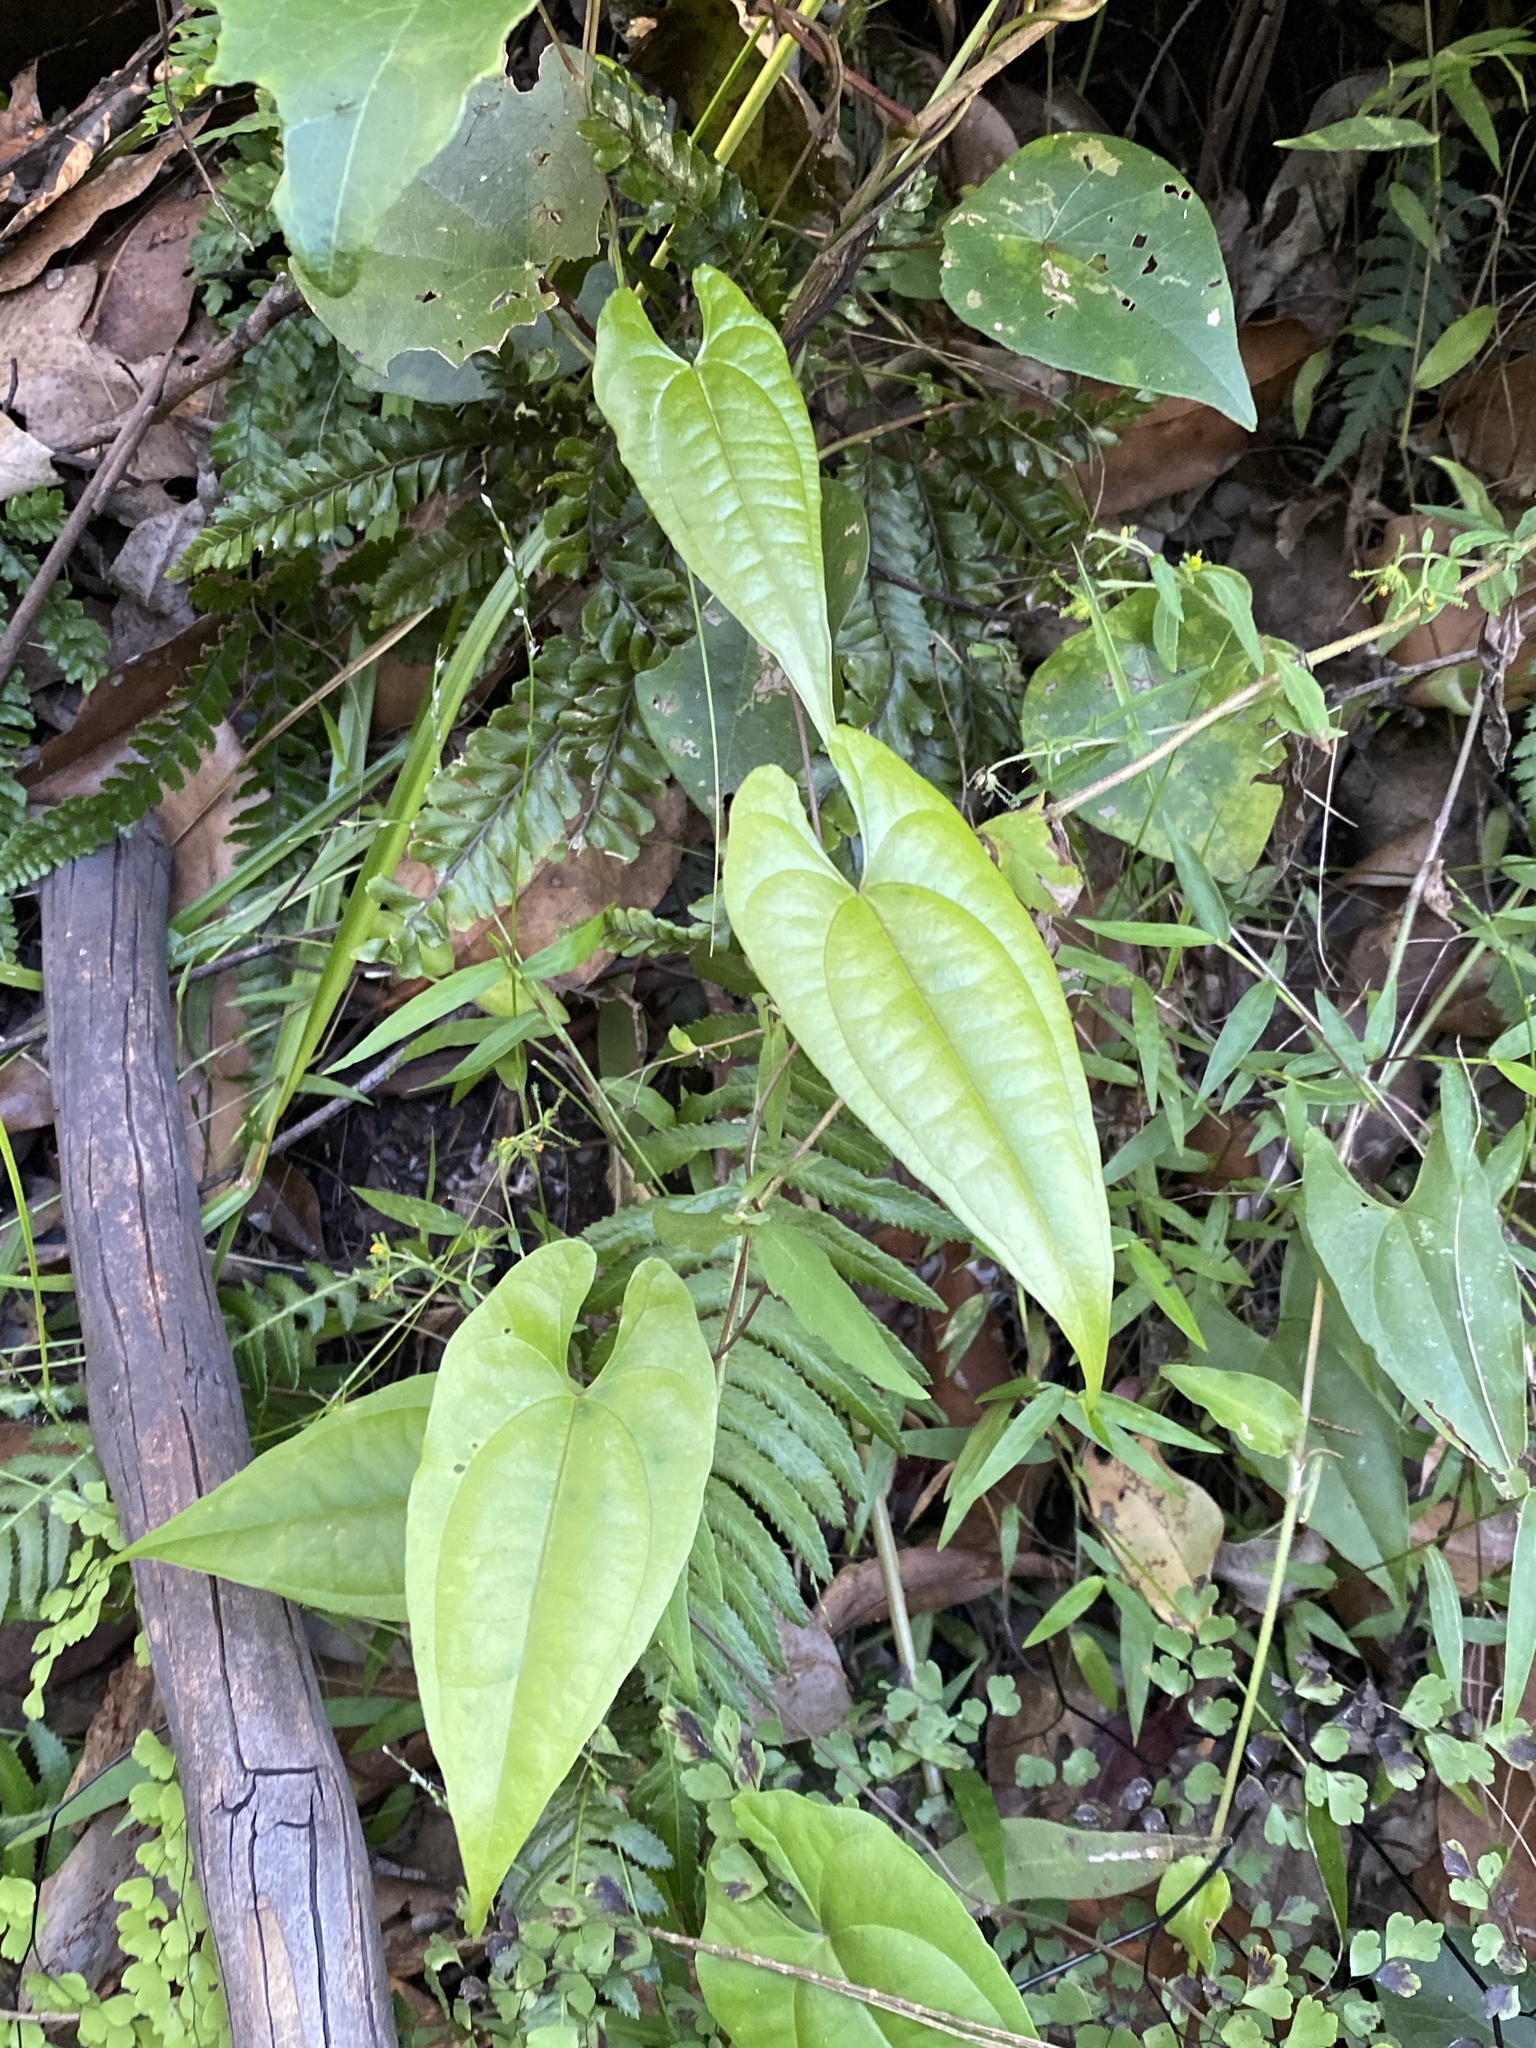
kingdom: Plantae
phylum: Tracheophyta
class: Liliopsida
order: Dioscoreales
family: Dioscoreaceae
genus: Dioscorea
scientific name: Dioscorea transversa
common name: Long yam
